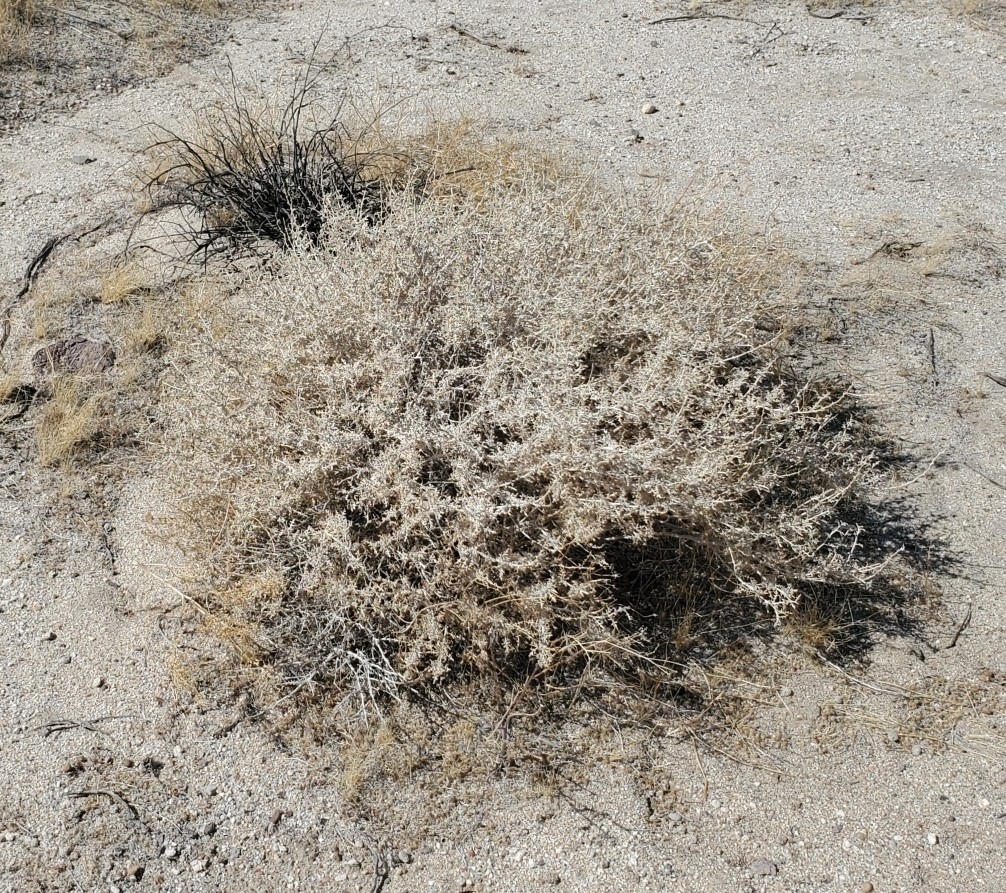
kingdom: Plantae
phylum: Tracheophyta
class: Magnoliopsida
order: Asterales
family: Asteraceae
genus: Ambrosia
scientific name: Ambrosia dumosa
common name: Bur-sage
